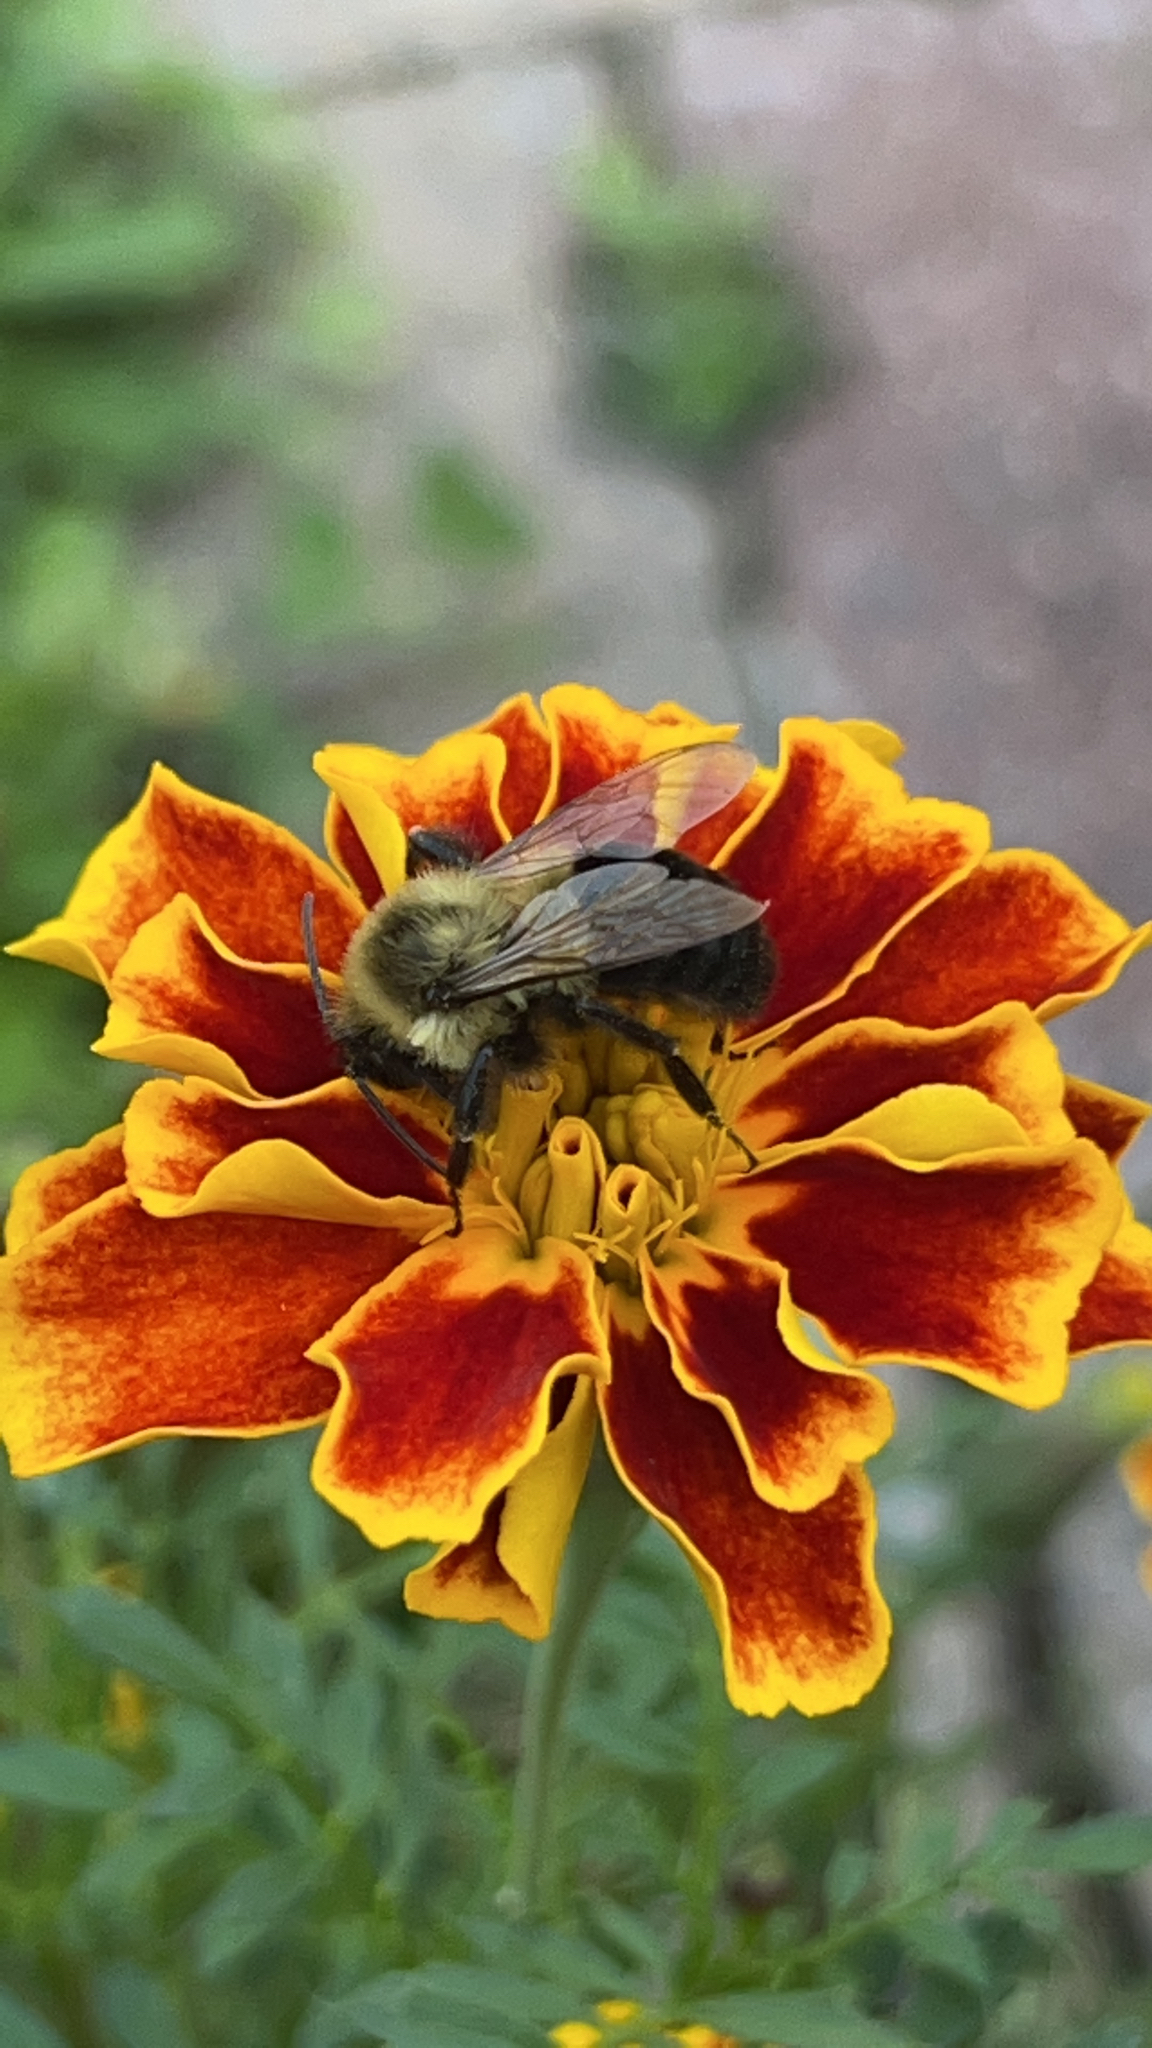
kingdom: Animalia
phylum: Arthropoda
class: Insecta
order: Hymenoptera
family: Apidae
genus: Bombus
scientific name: Bombus impatiens
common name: Common eastern bumble bee
